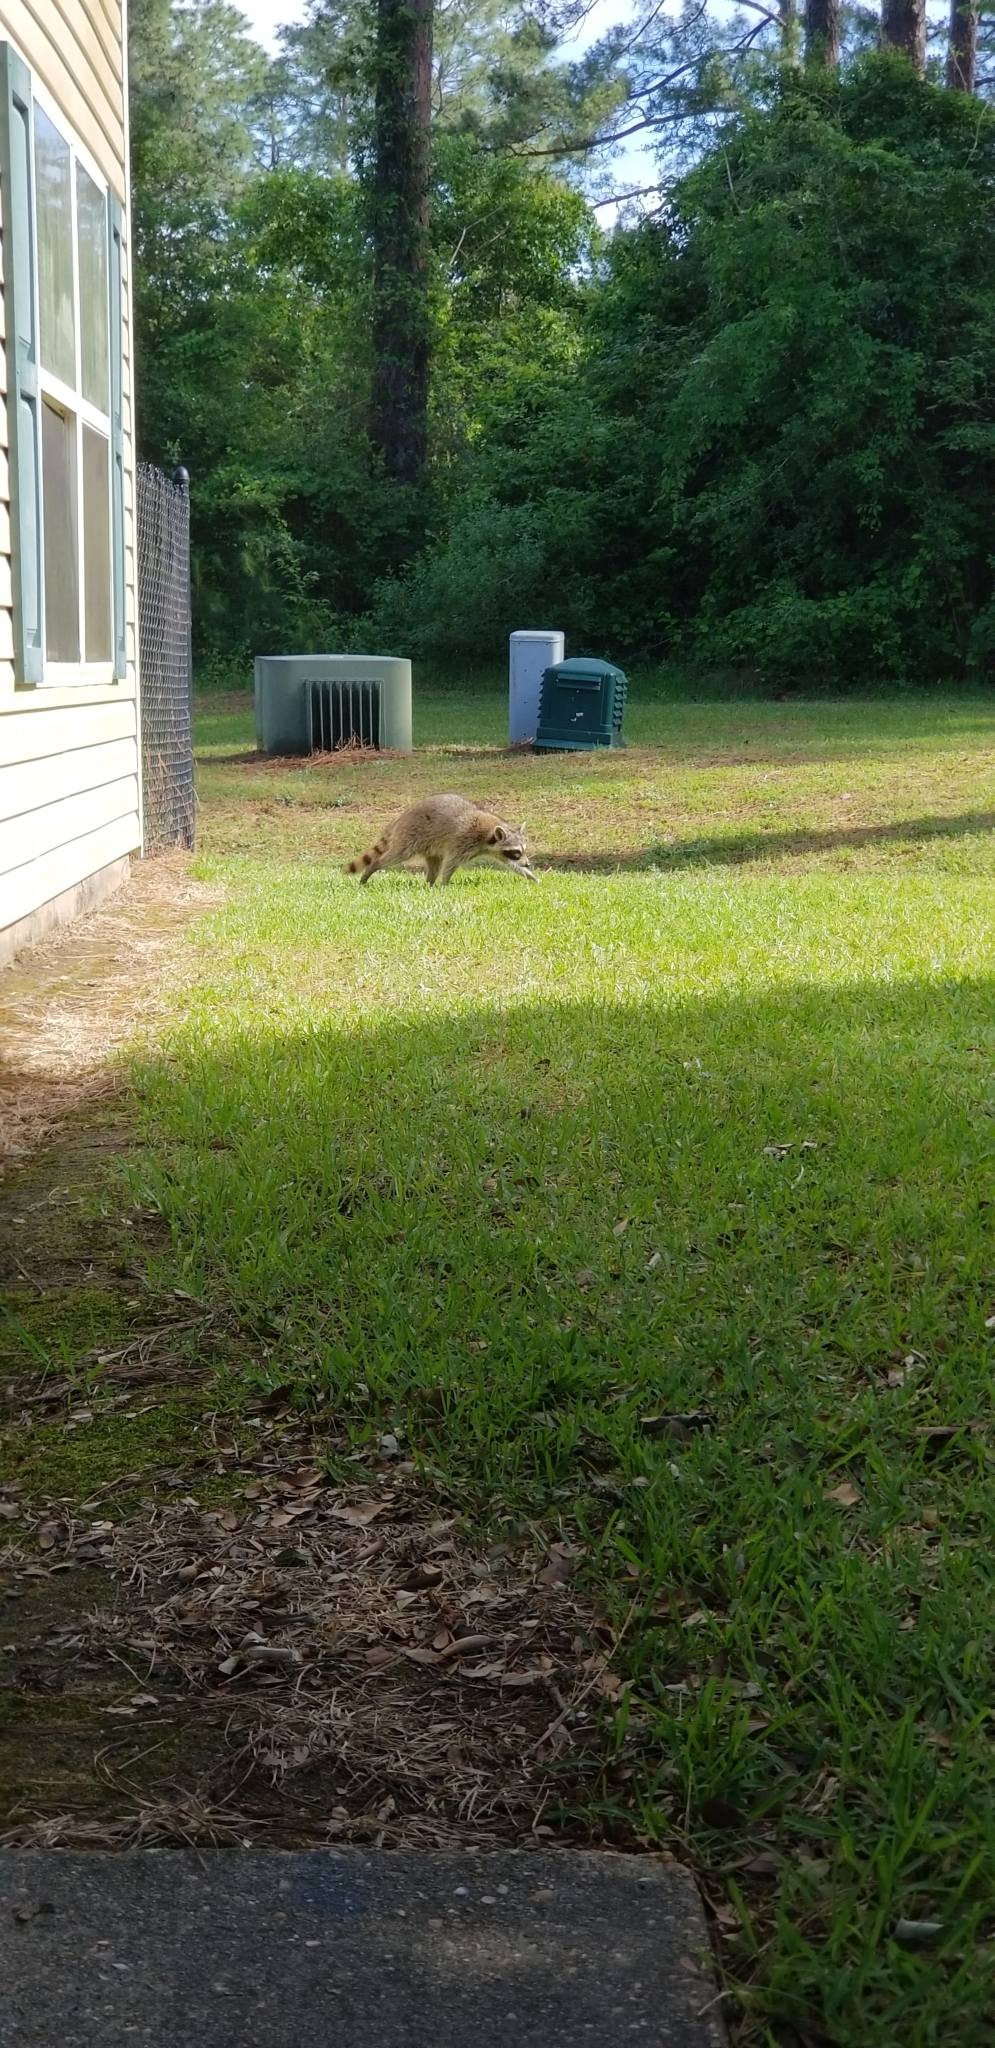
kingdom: Animalia
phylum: Chordata
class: Mammalia
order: Carnivora
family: Procyonidae
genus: Procyon
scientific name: Procyon lotor
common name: Raccoon
